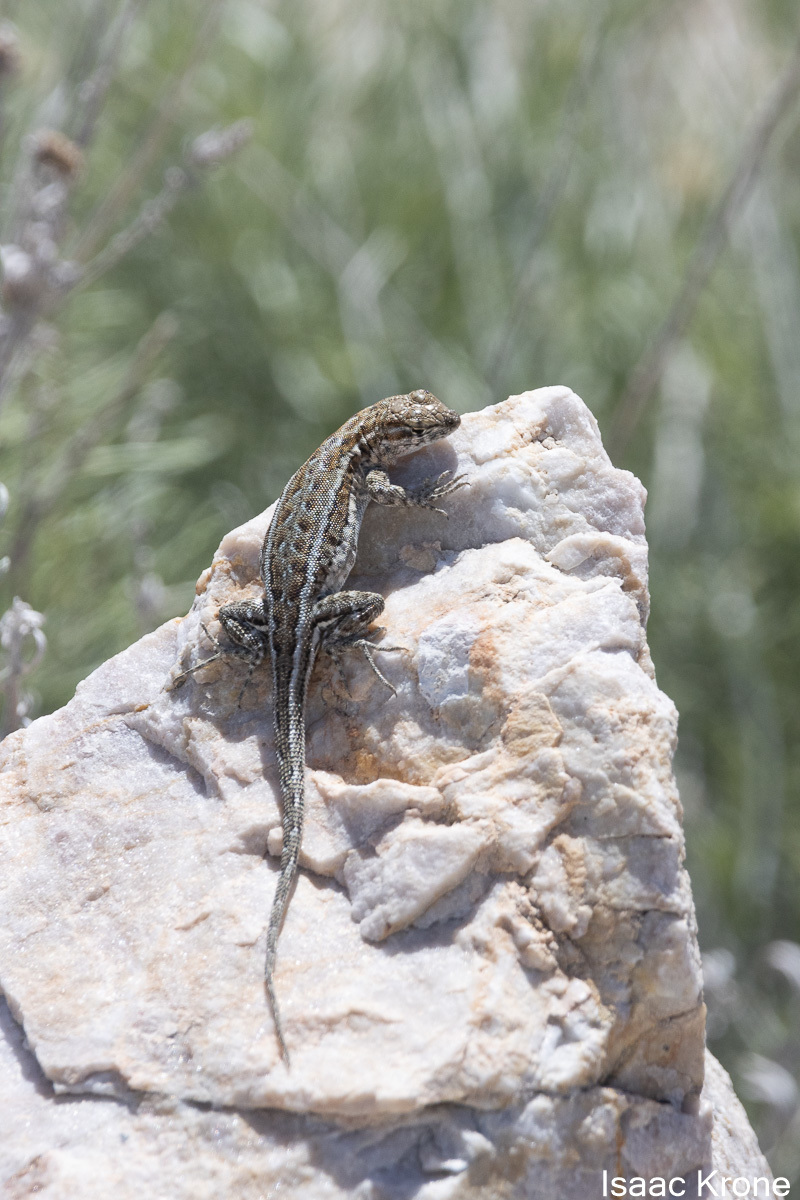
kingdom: Animalia
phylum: Chordata
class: Squamata
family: Phrynosomatidae
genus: Uta
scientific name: Uta stansburiana
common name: Side-blotched lizard
